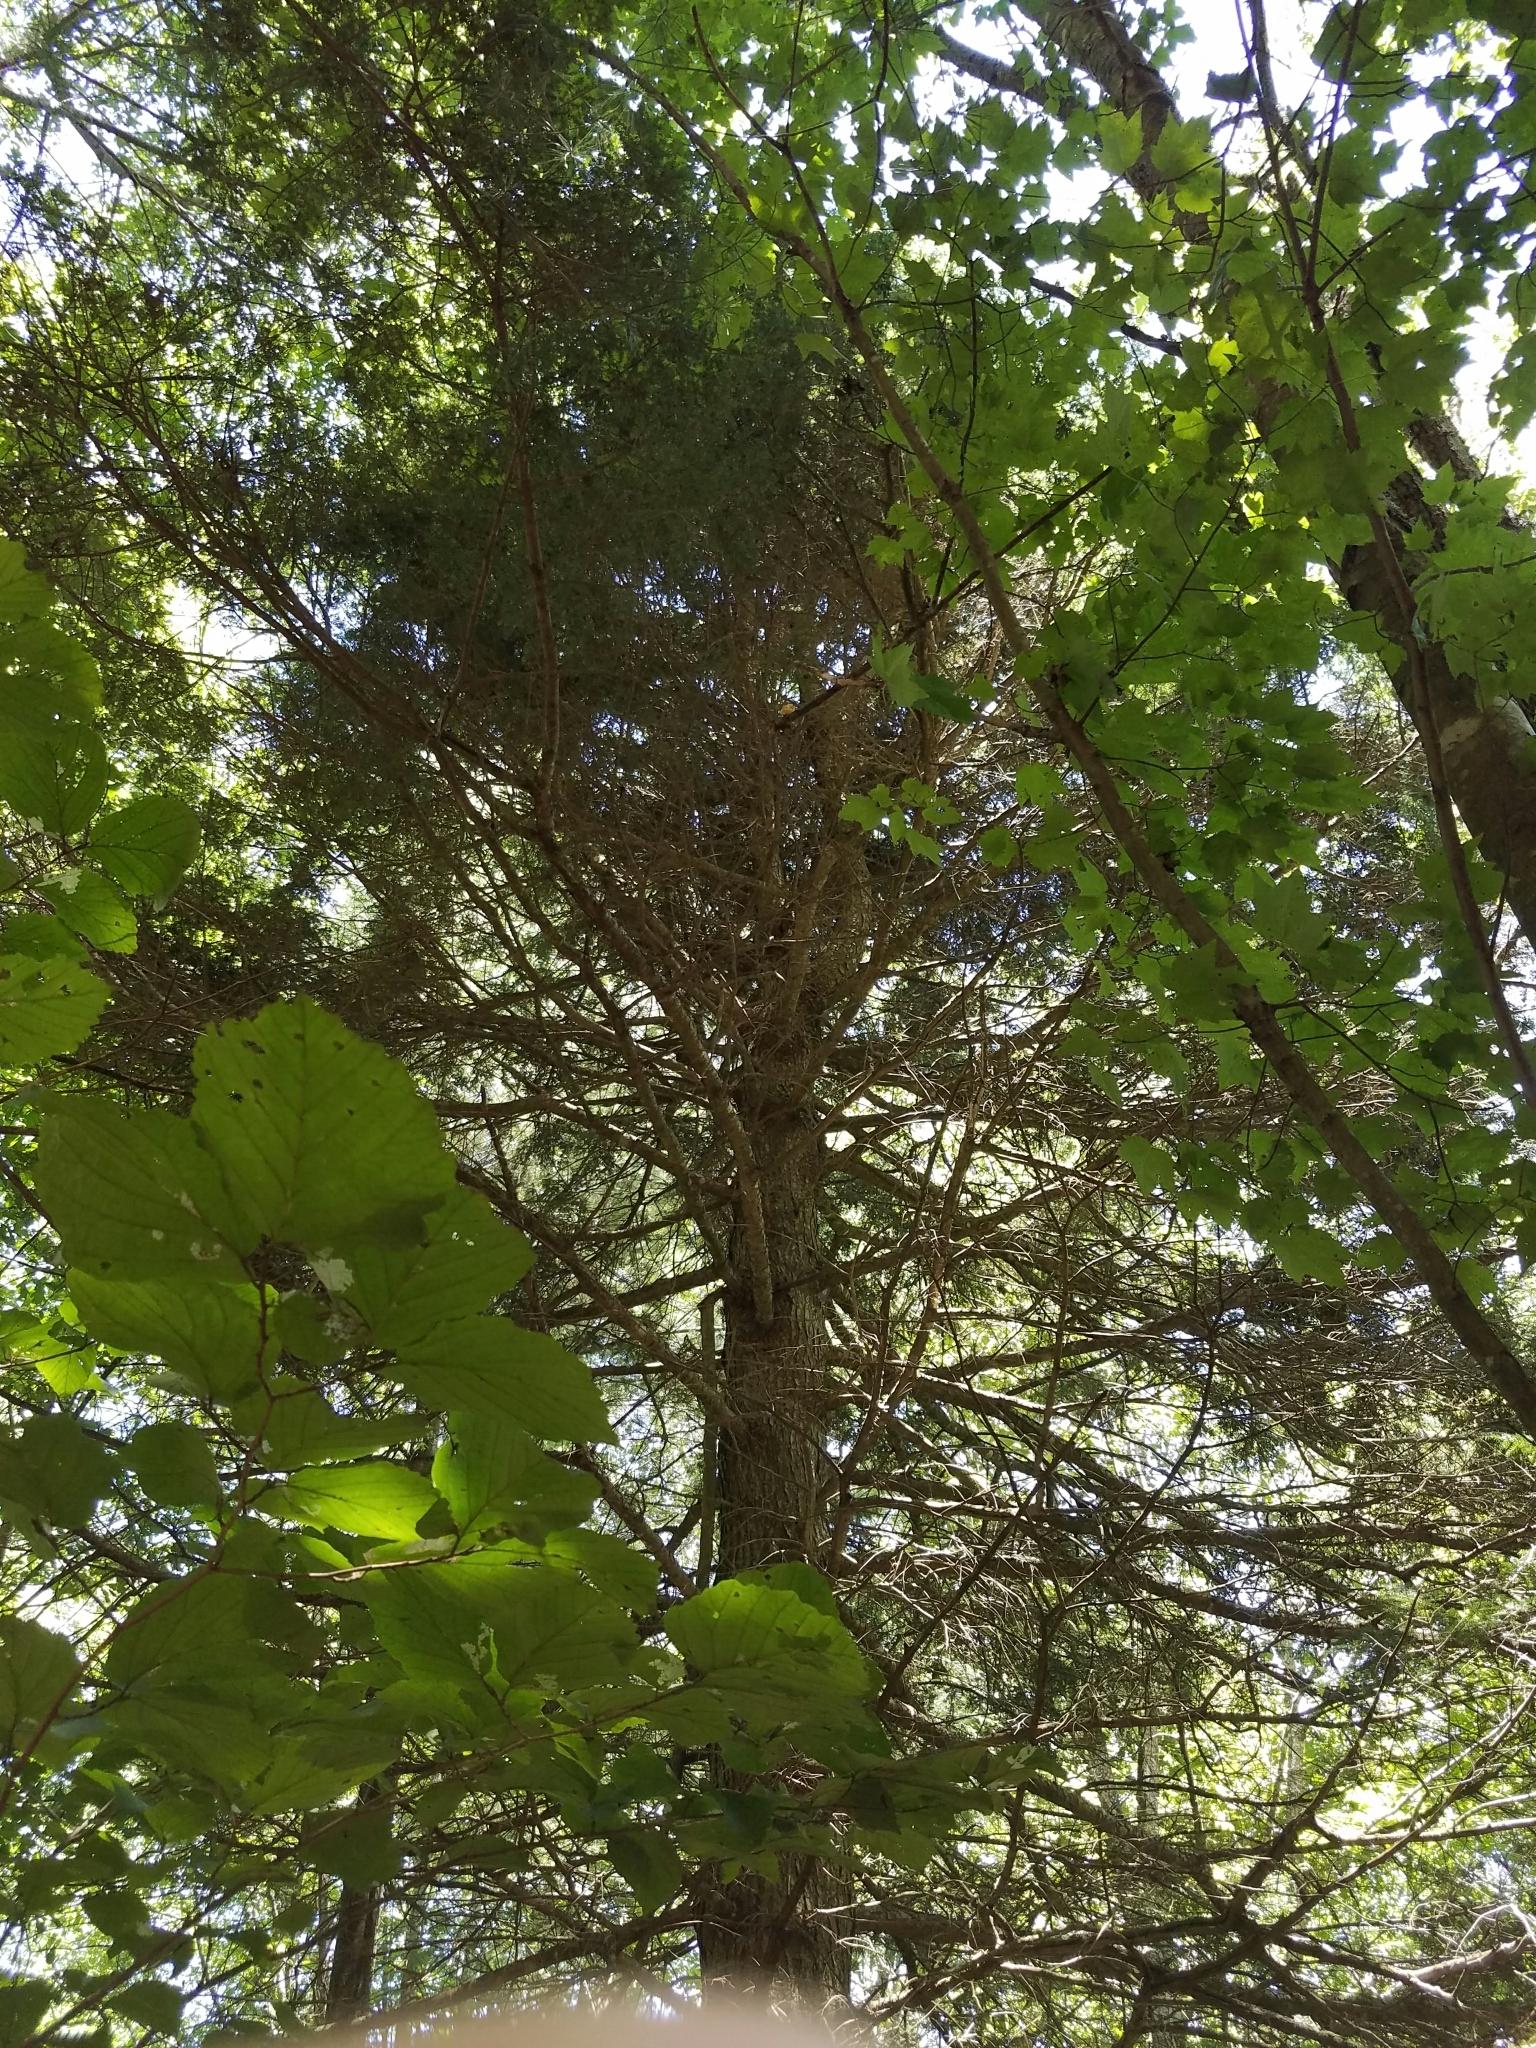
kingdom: Plantae
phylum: Tracheophyta
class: Pinopsida
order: Pinales
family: Pinaceae
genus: Tsuga
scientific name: Tsuga canadensis
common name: Eastern hemlock
